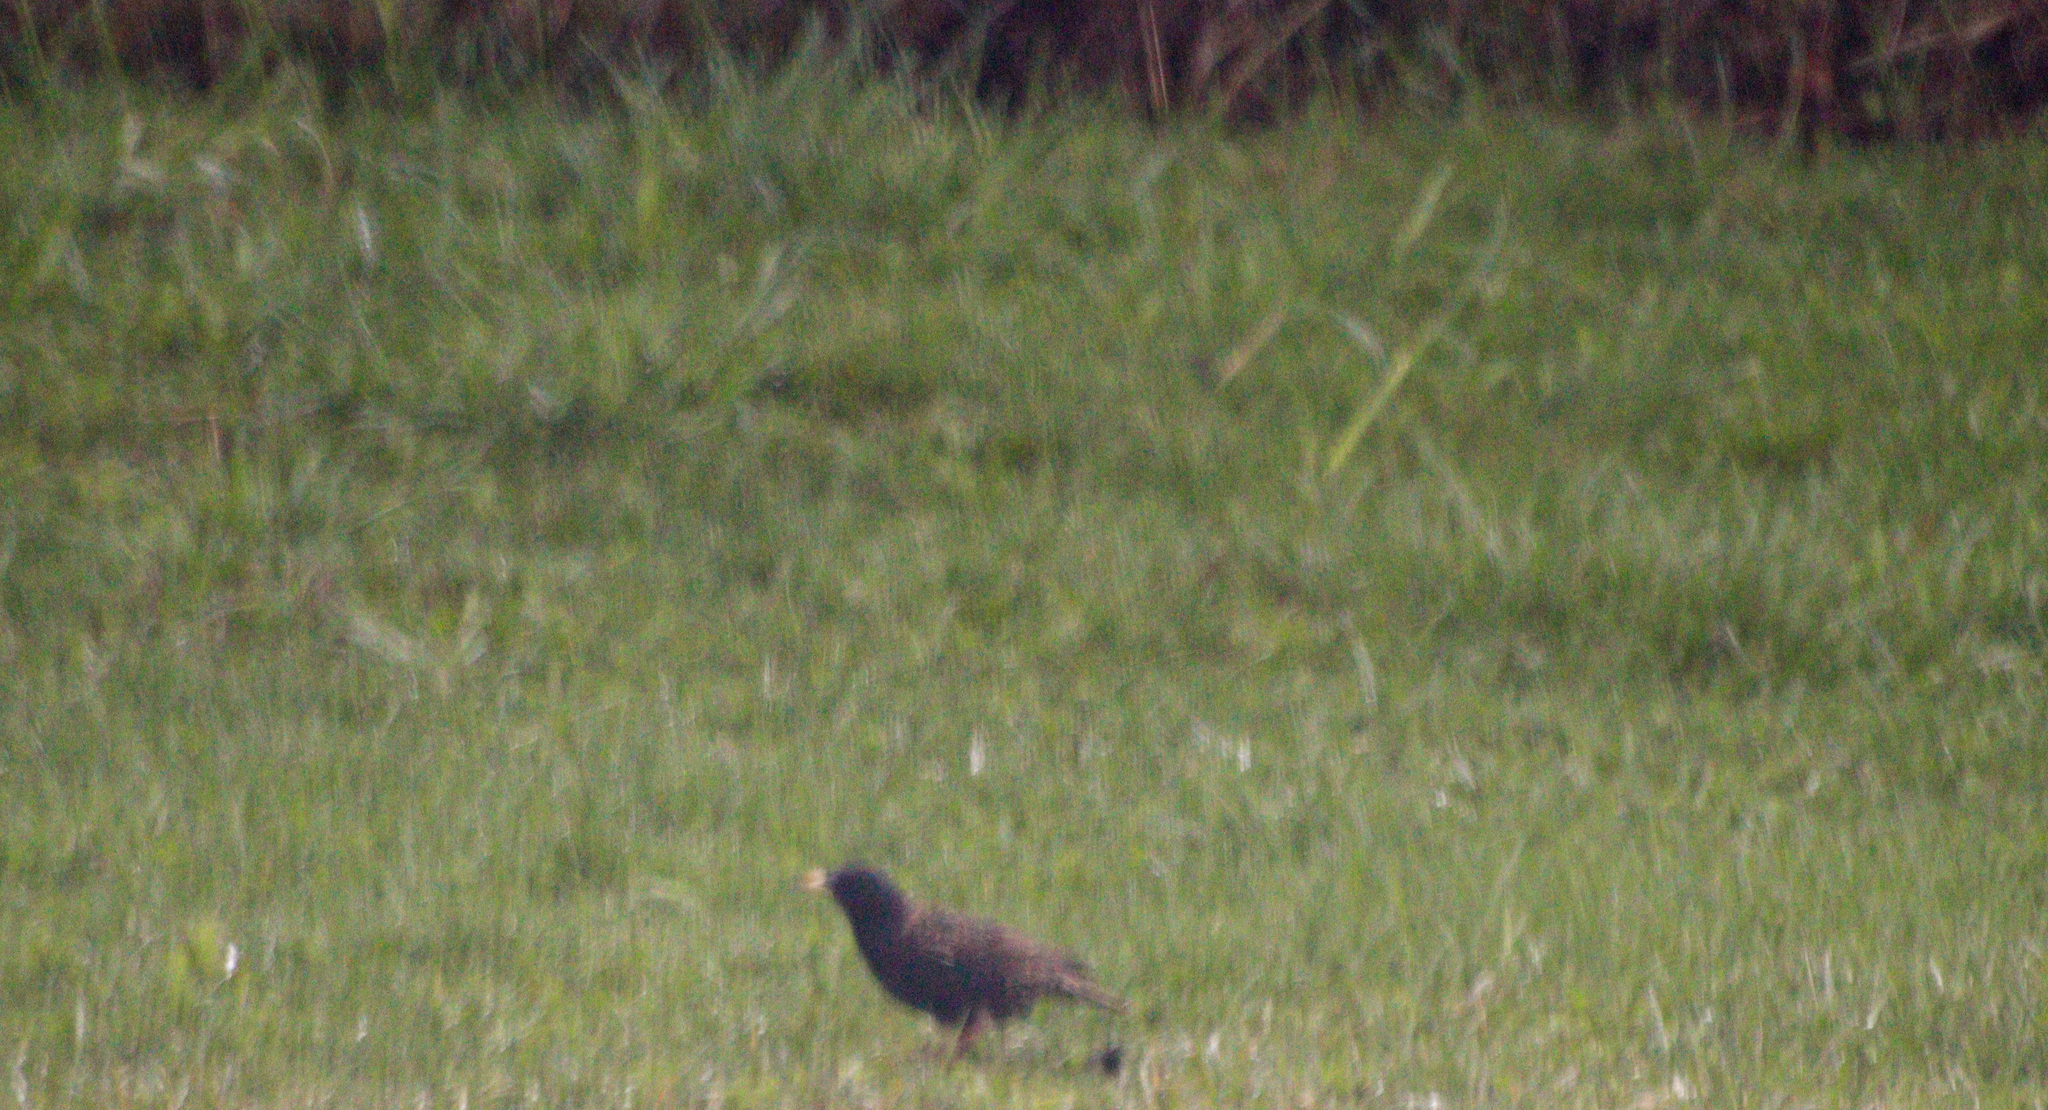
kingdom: Animalia
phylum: Chordata
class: Aves
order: Passeriformes
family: Sturnidae
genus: Sturnus
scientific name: Sturnus vulgaris
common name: Common starling
